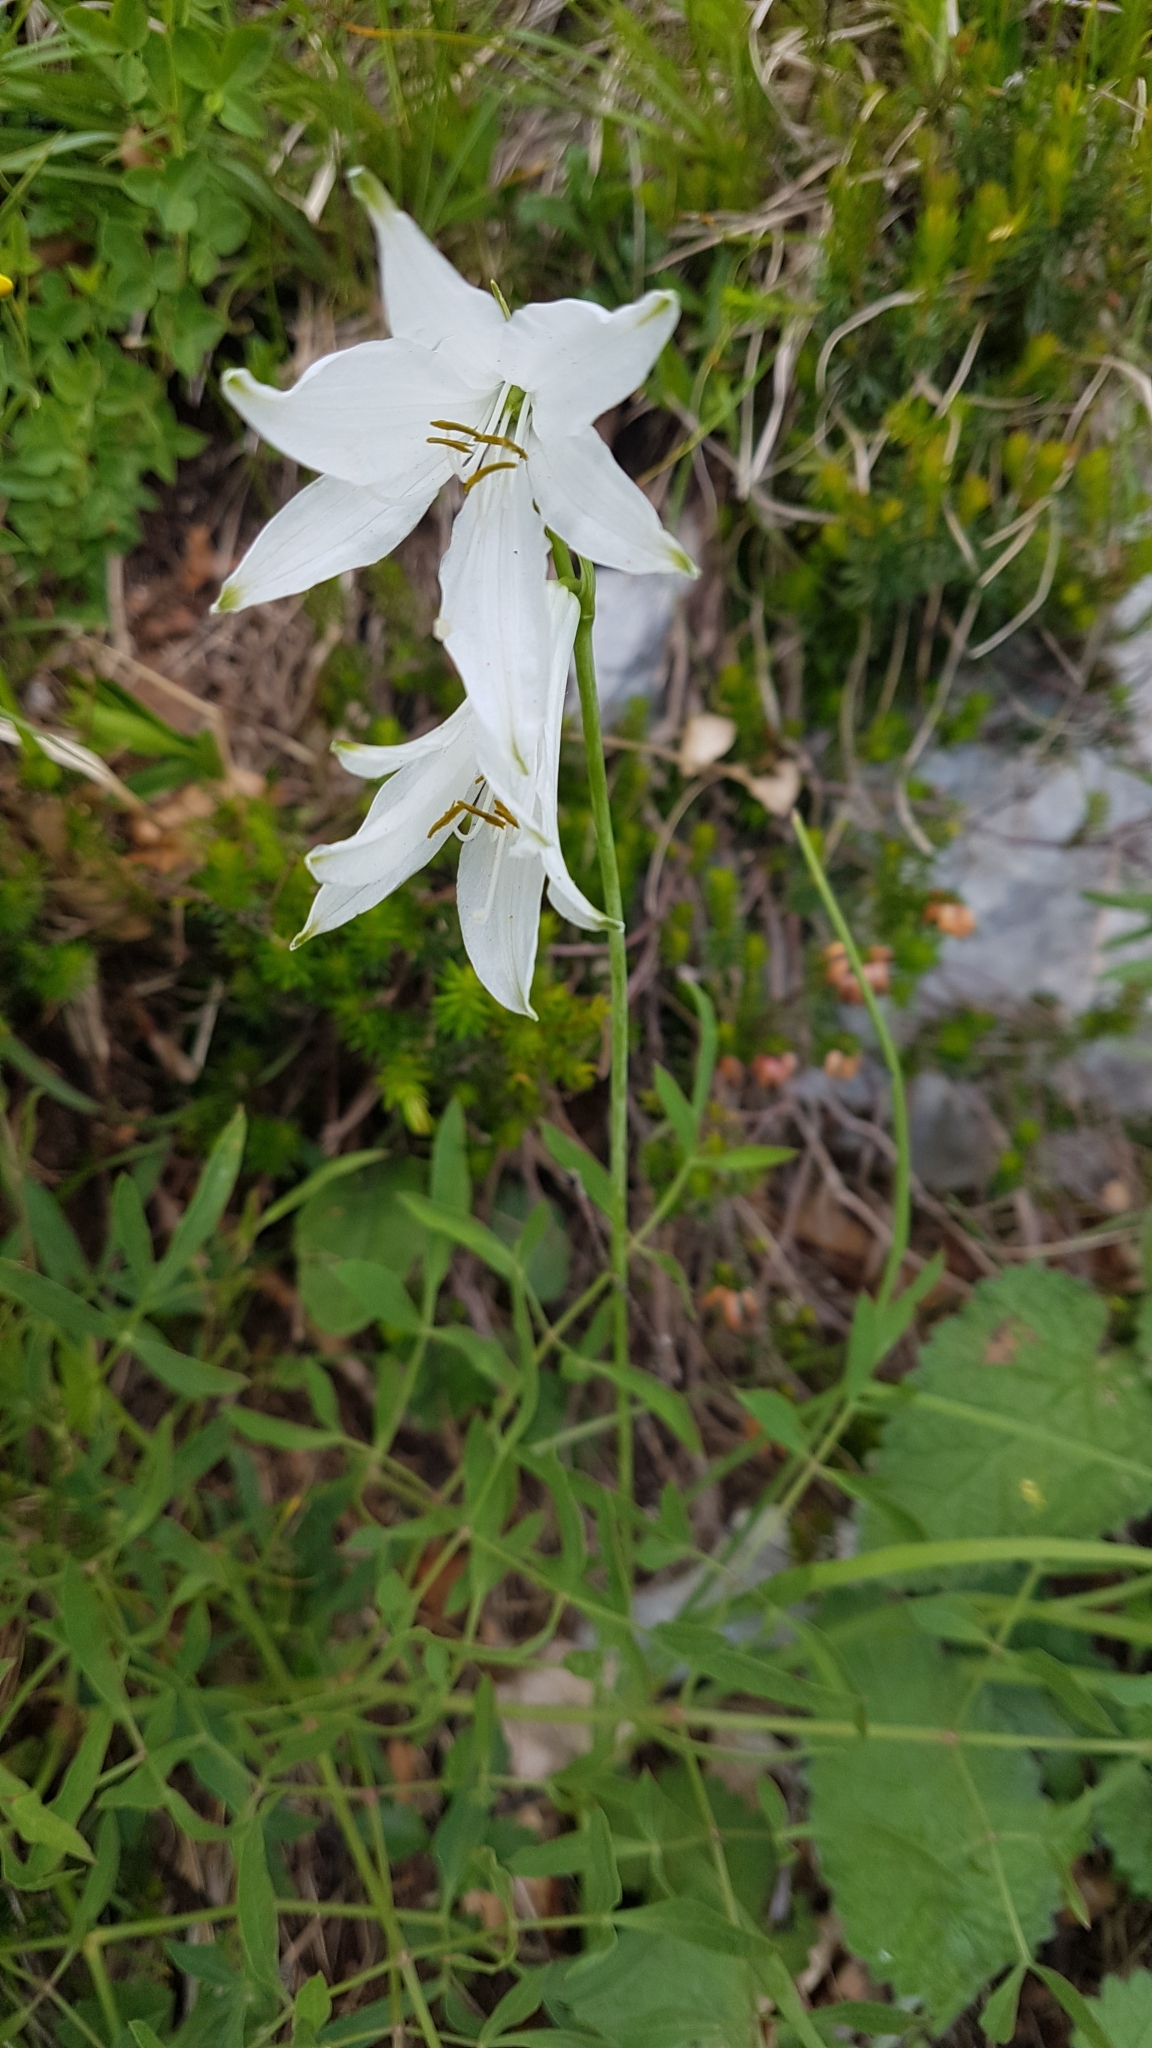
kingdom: Plantae
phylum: Tracheophyta
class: Liliopsida
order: Asparagales
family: Asparagaceae
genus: Paradisea
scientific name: Paradisea liliastrum
